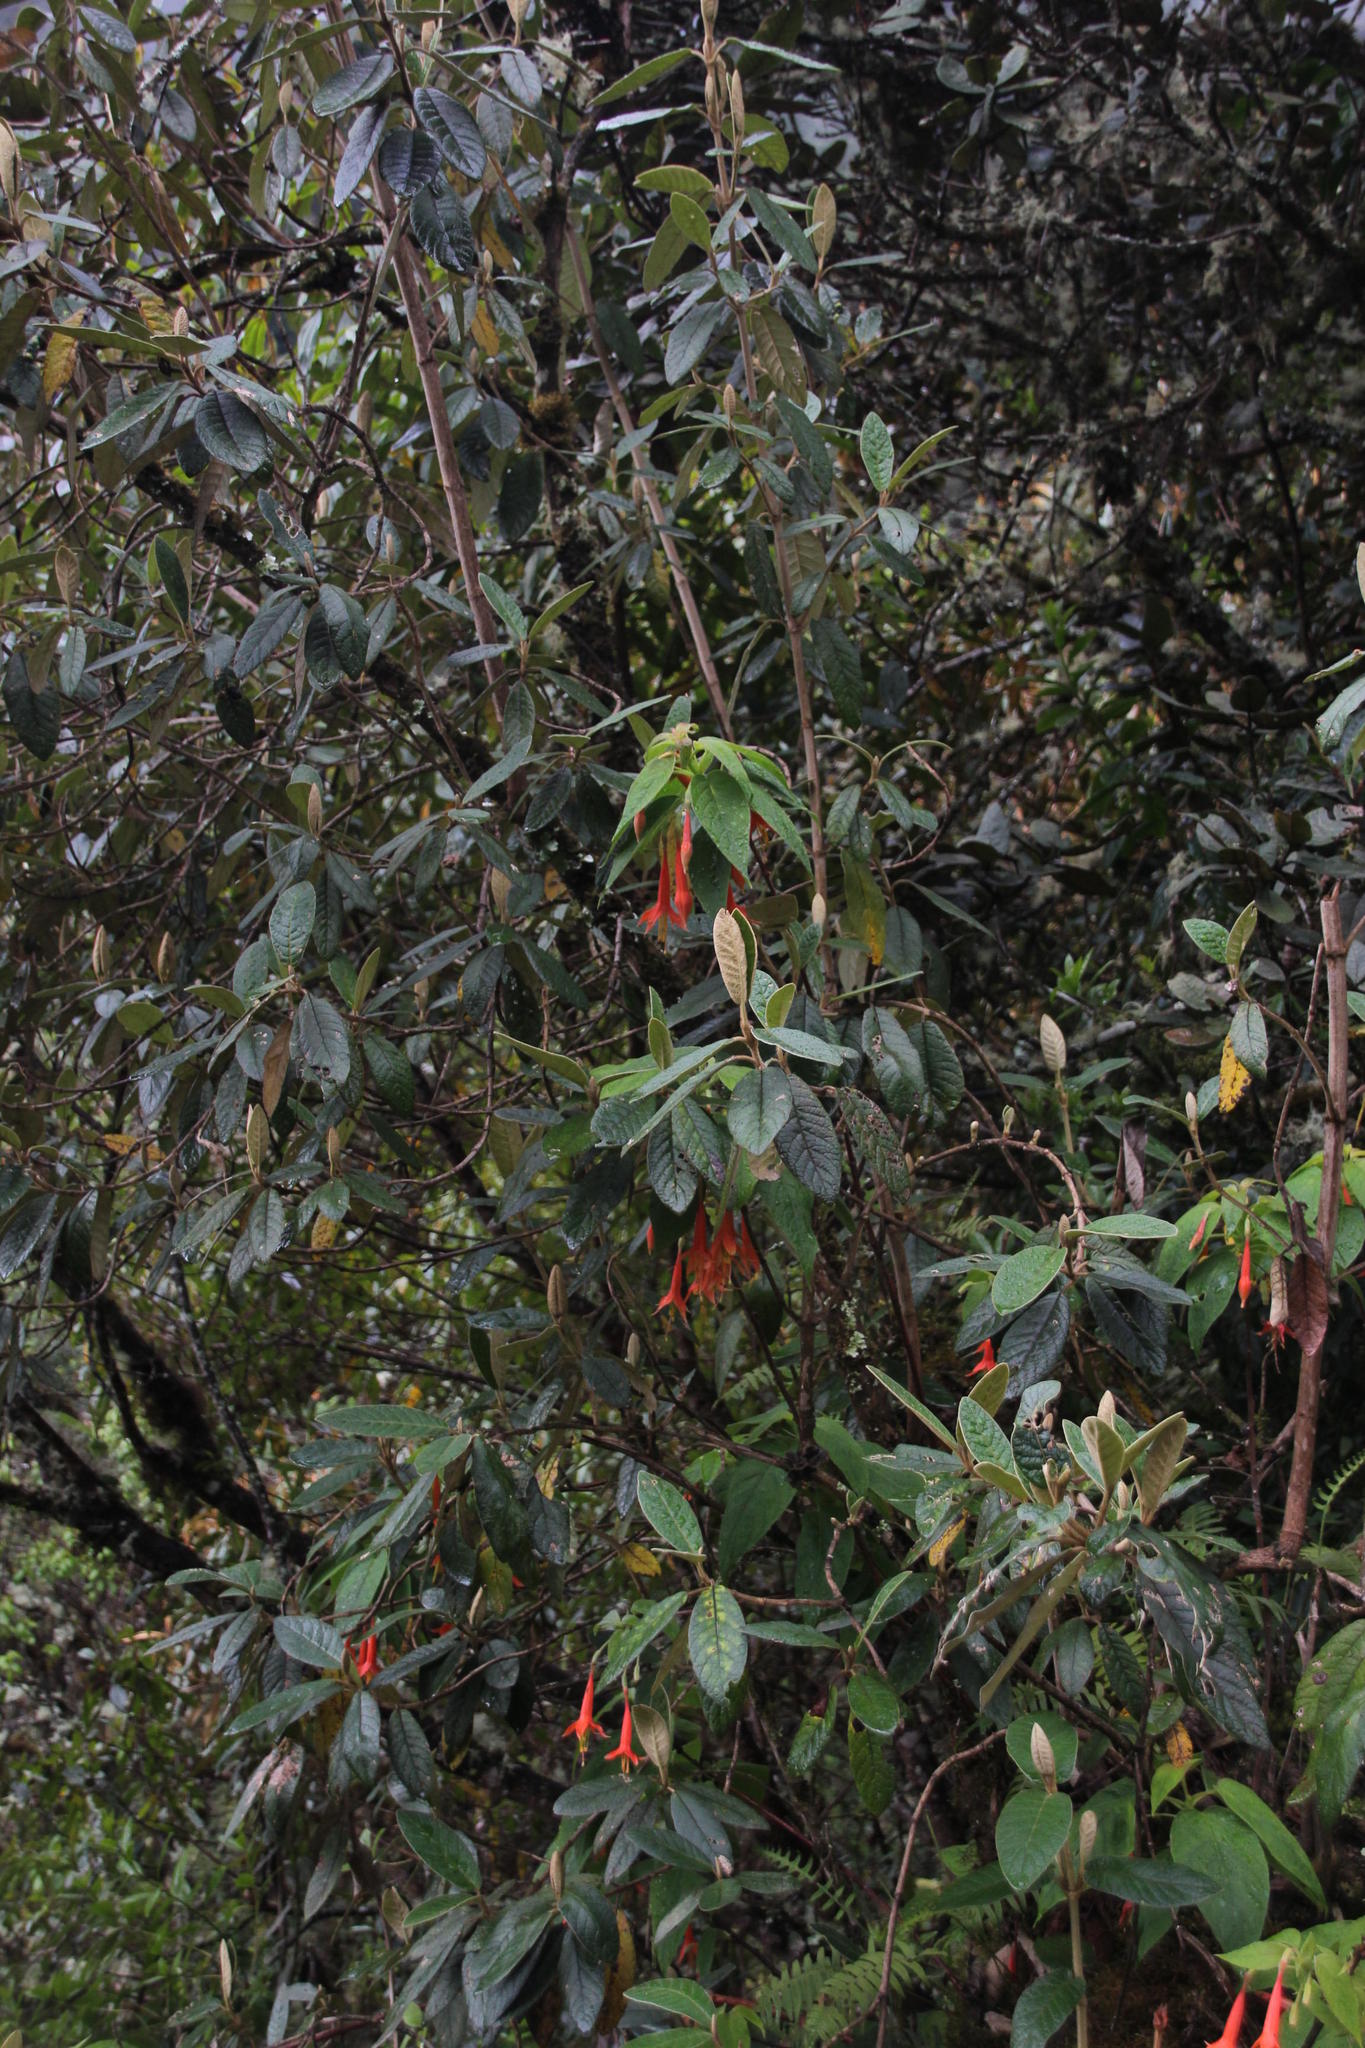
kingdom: Plantae
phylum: Tracheophyta
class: Magnoliopsida
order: Myrtales
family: Onagraceae
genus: Fuchsia
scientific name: Fuchsia tunariensis
